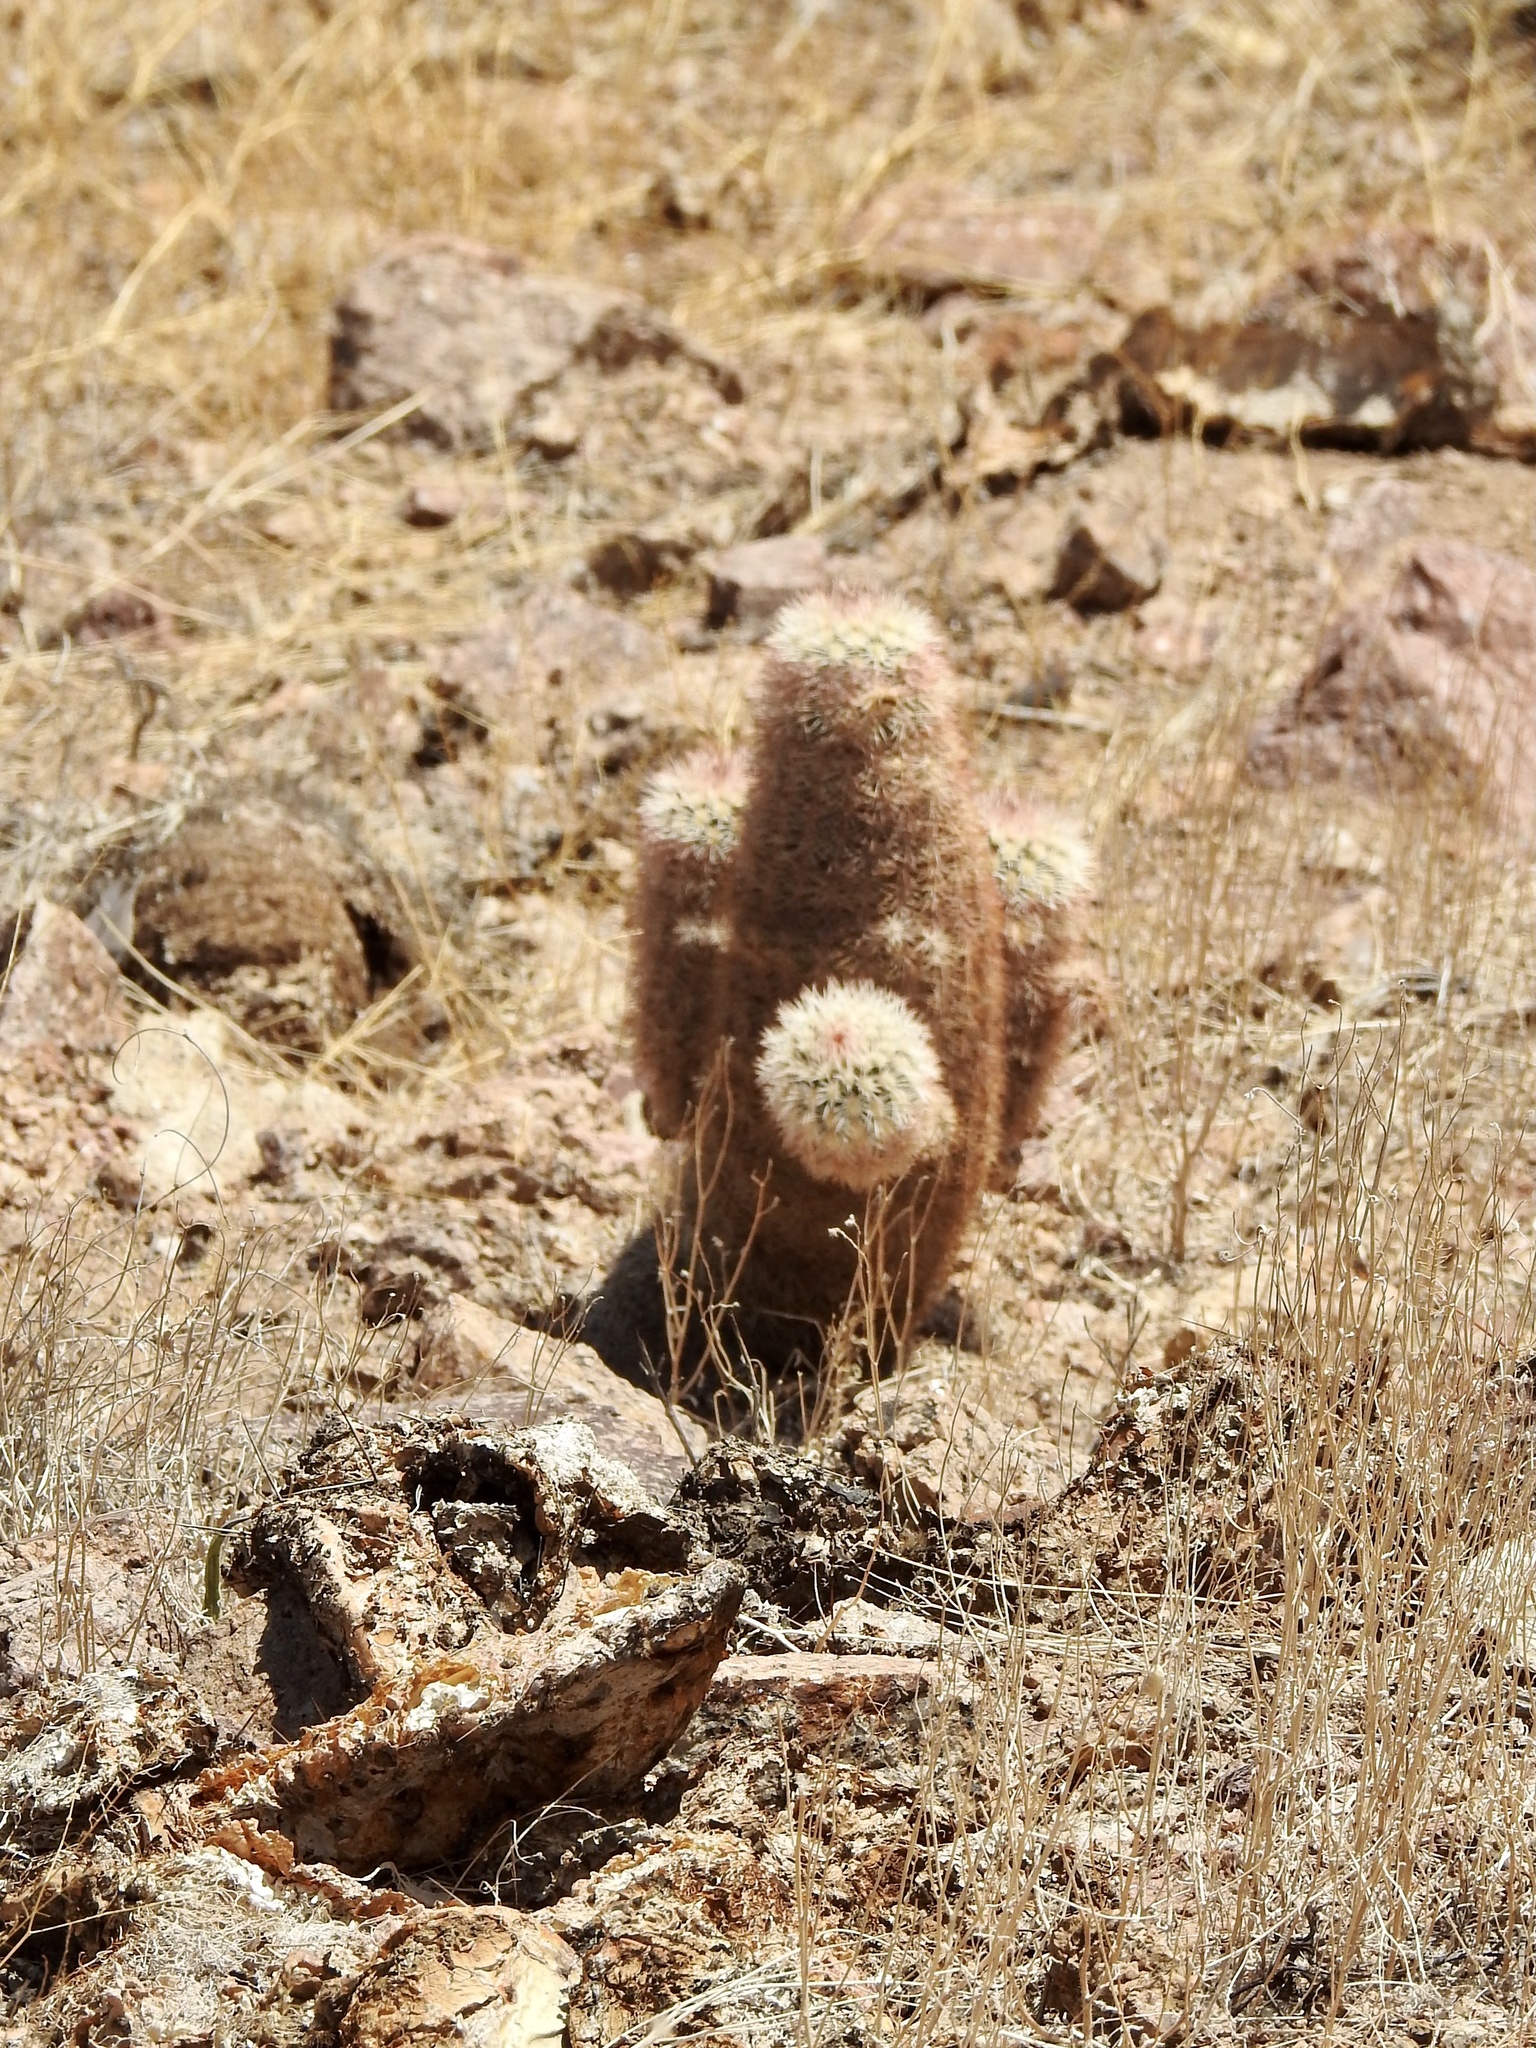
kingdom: Plantae
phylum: Tracheophyta
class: Magnoliopsida
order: Caryophyllales
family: Cactaceae
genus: Echinocereus
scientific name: Echinocereus dasyacanthus
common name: Spiny hedgehog cactus
